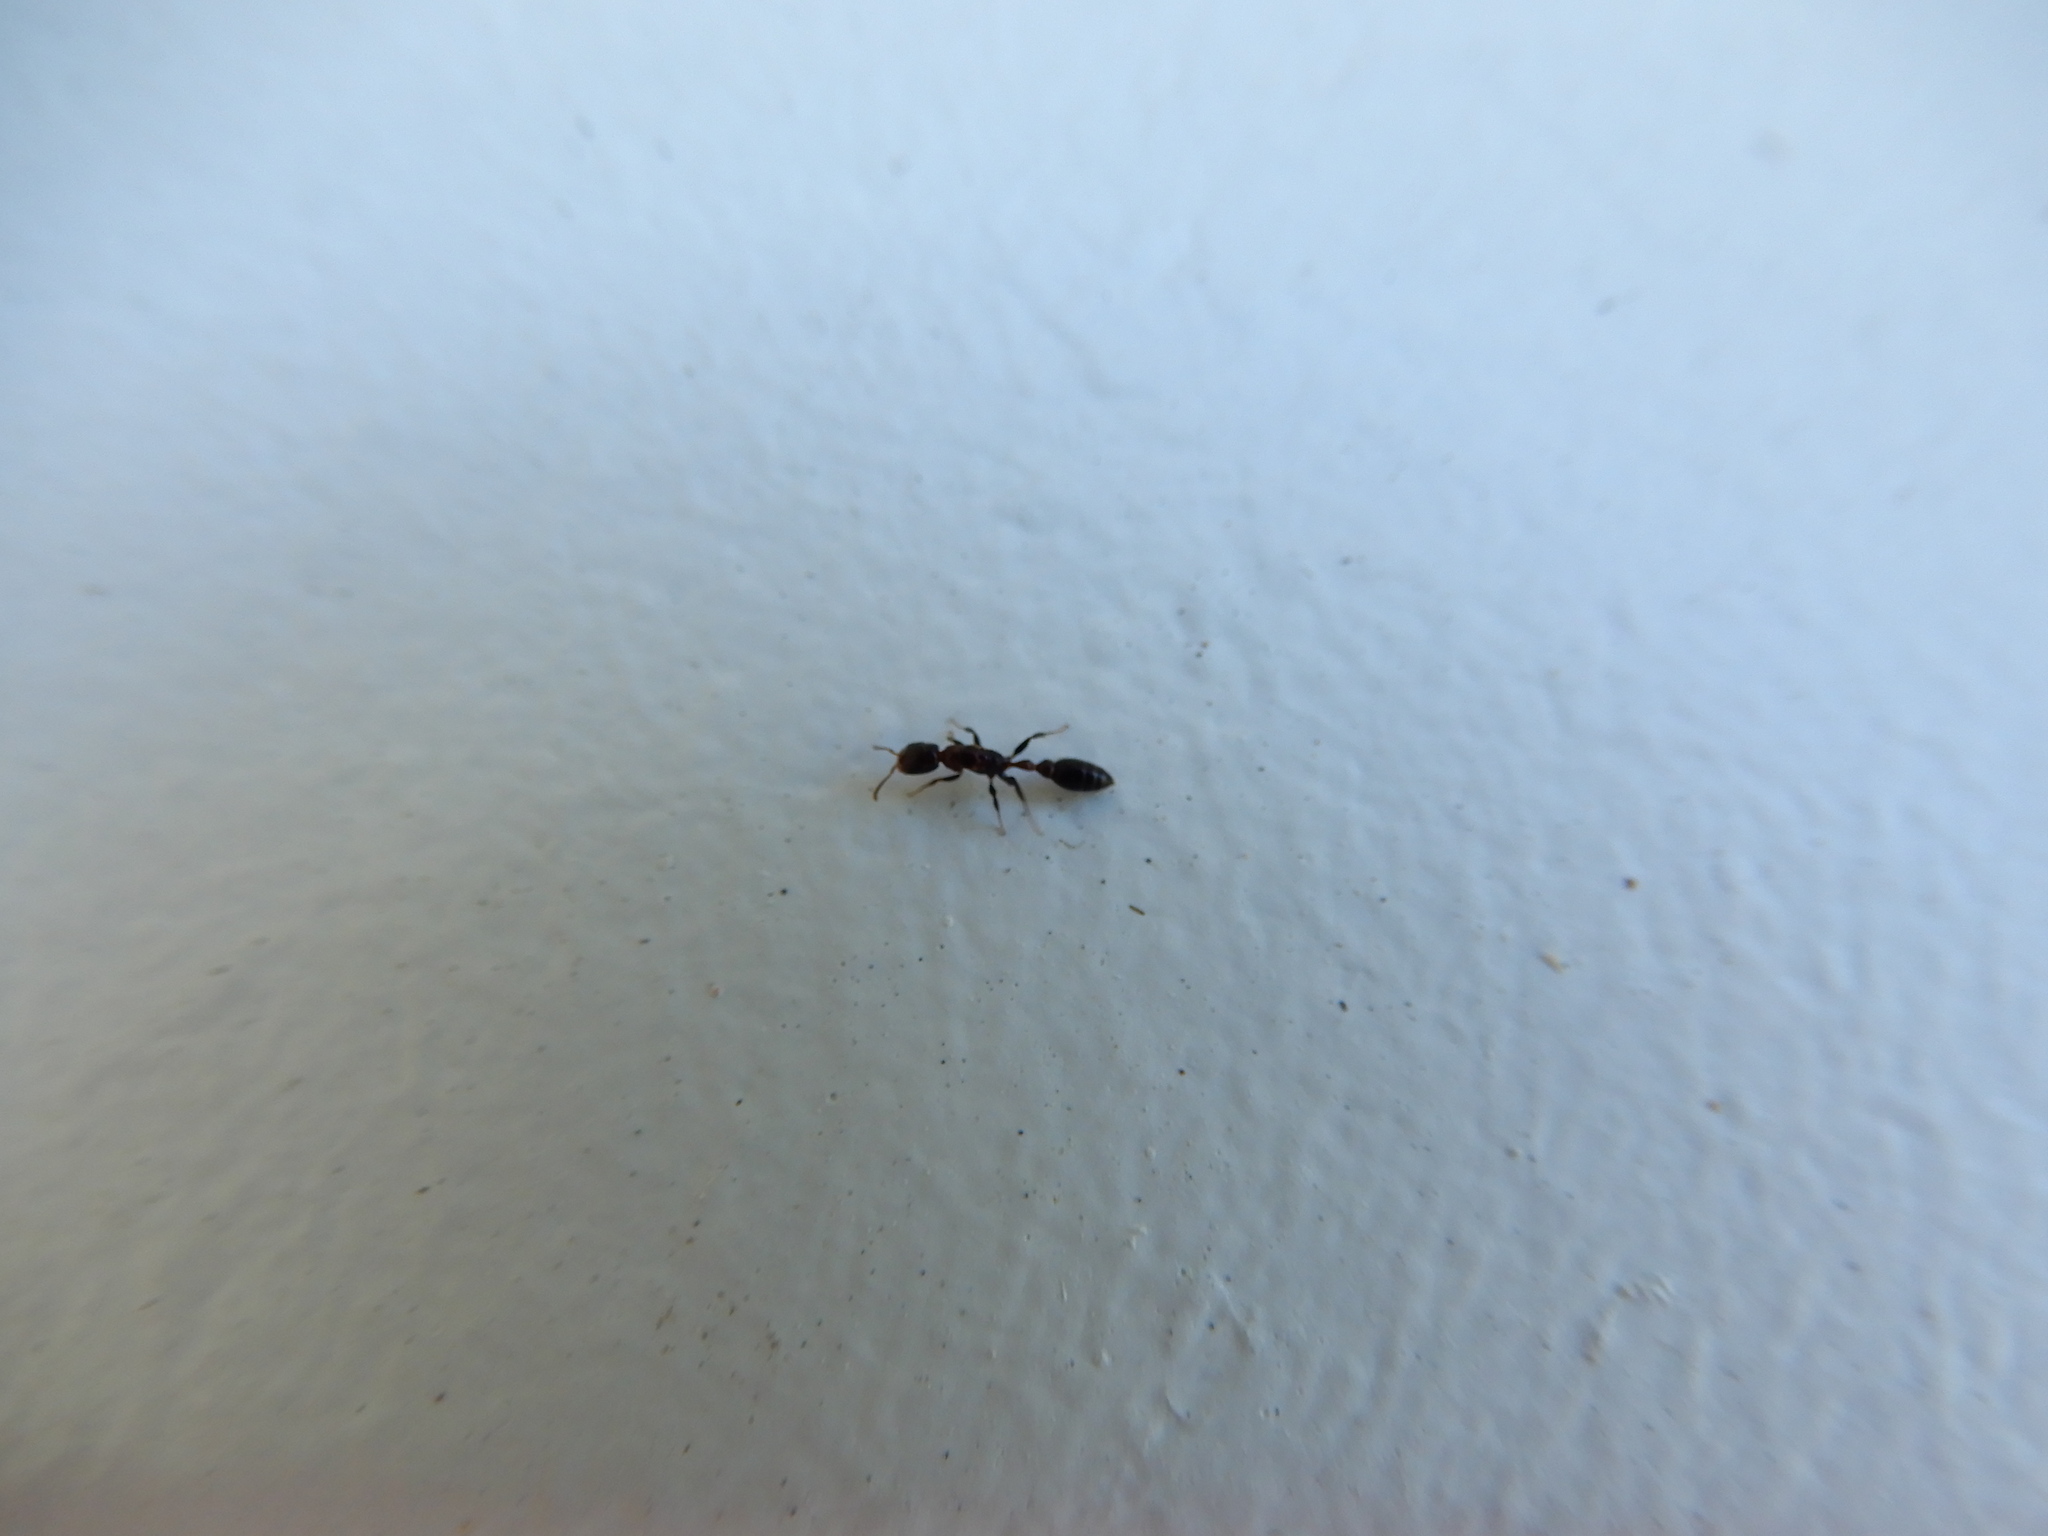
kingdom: Animalia
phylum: Arthropoda
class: Insecta
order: Hymenoptera
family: Formicidae
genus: Pseudomyrmex
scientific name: Pseudomyrmex ejectus
